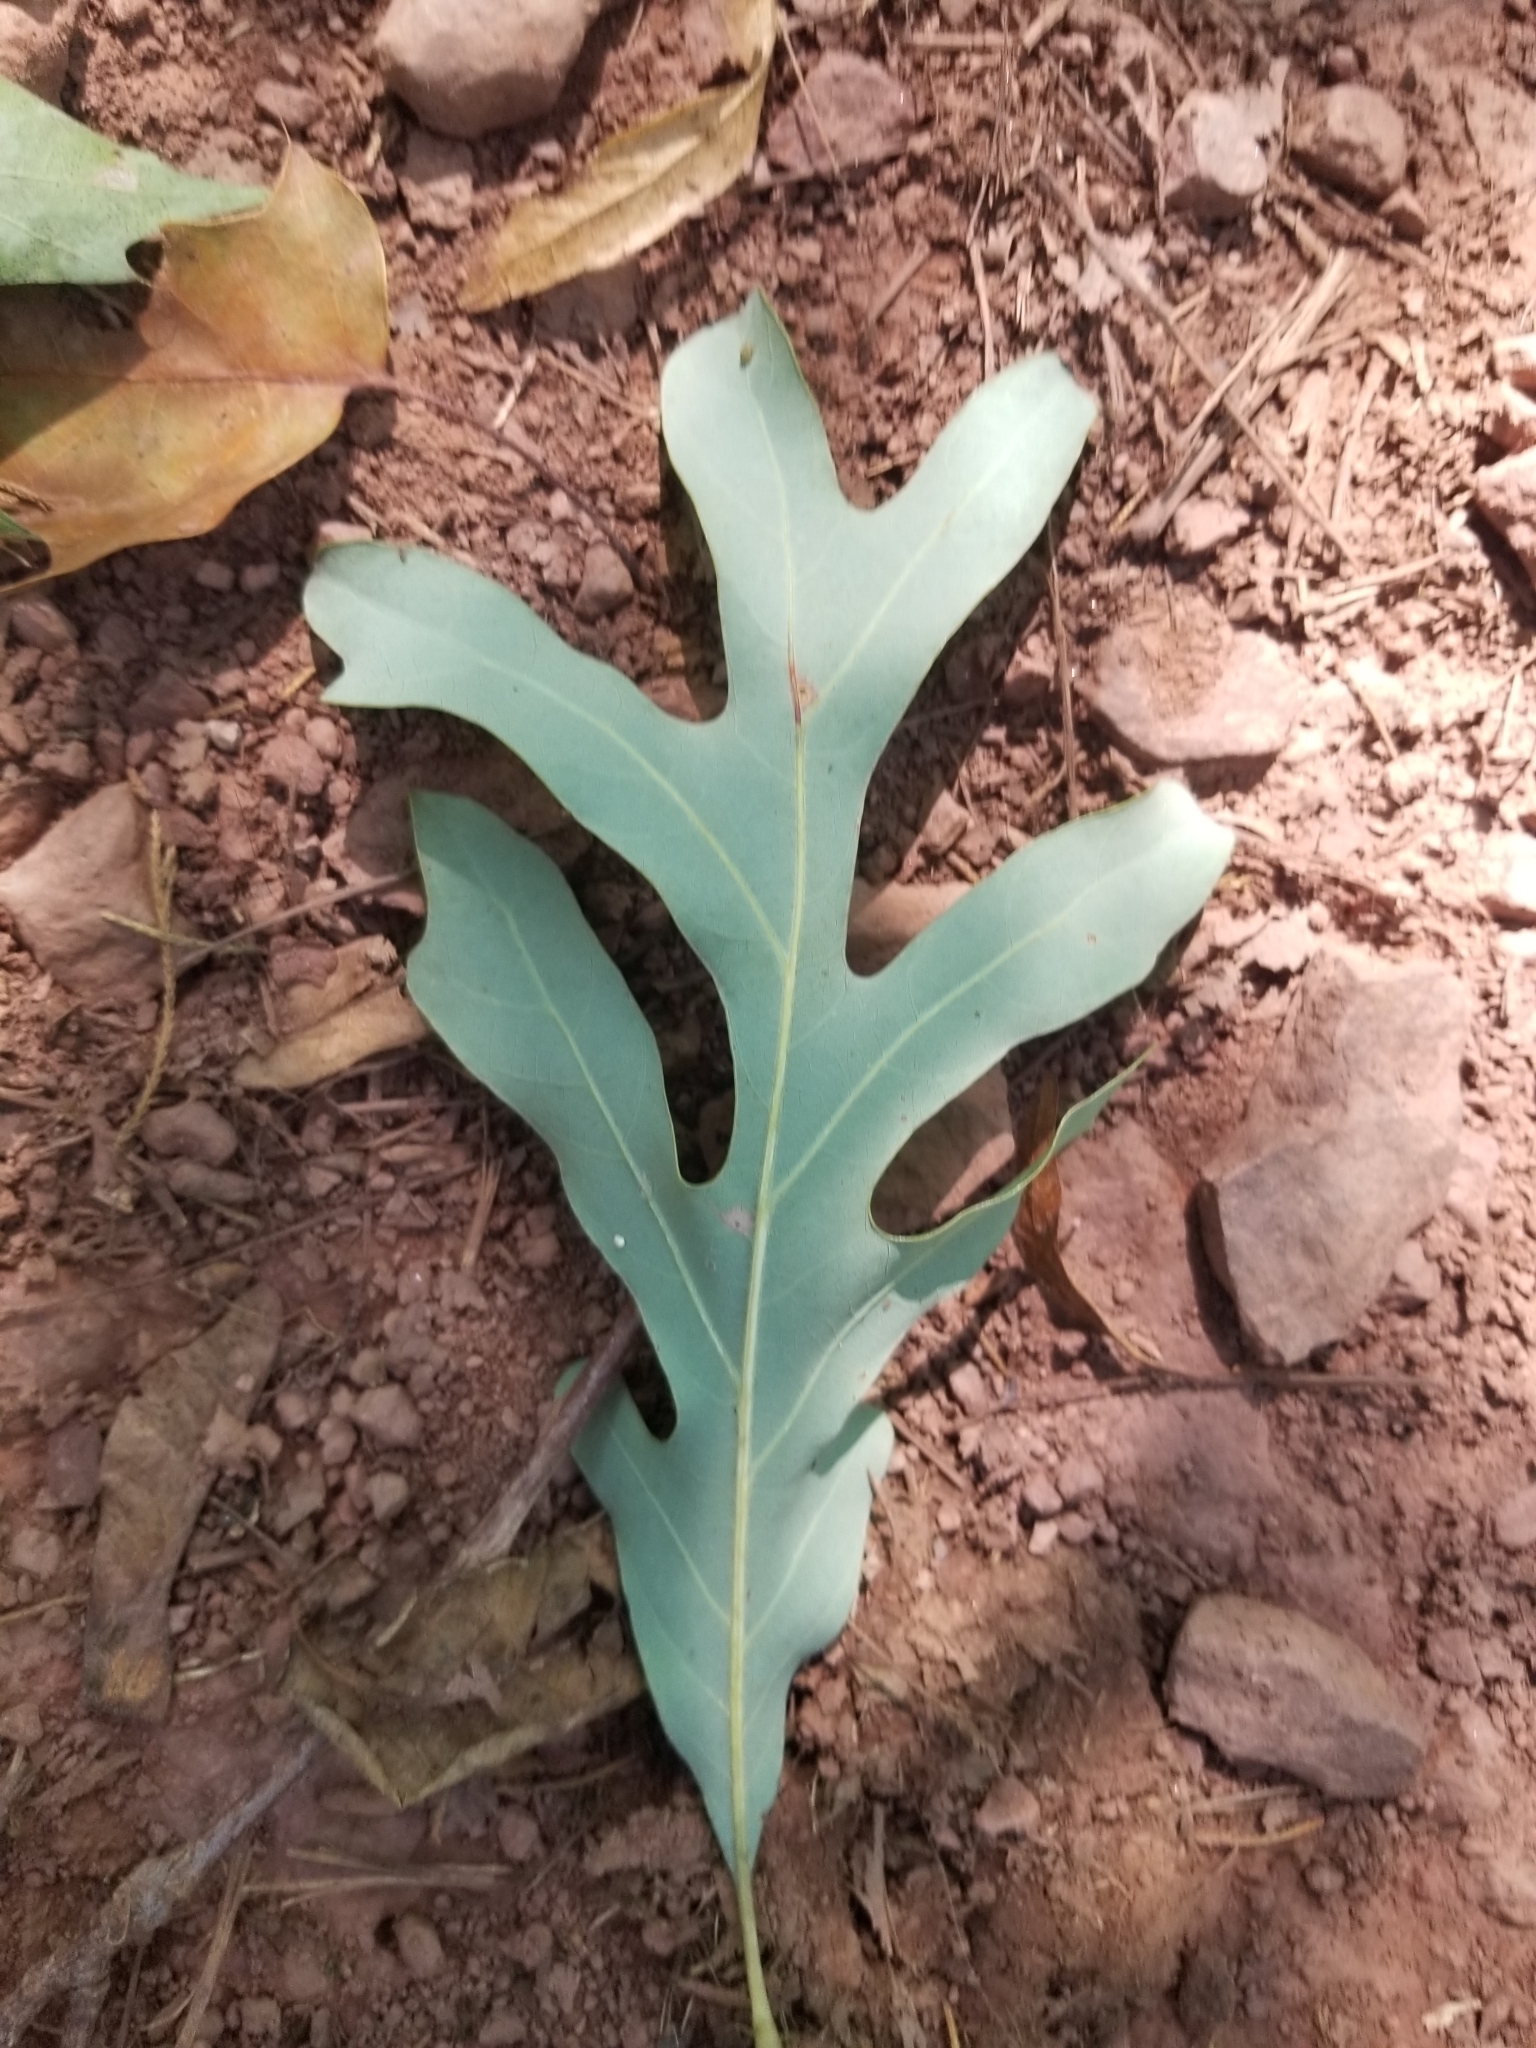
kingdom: Plantae
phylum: Tracheophyta
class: Magnoliopsida
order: Fagales
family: Fagaceae
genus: Quercus
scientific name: Quercus alba
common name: White oak
